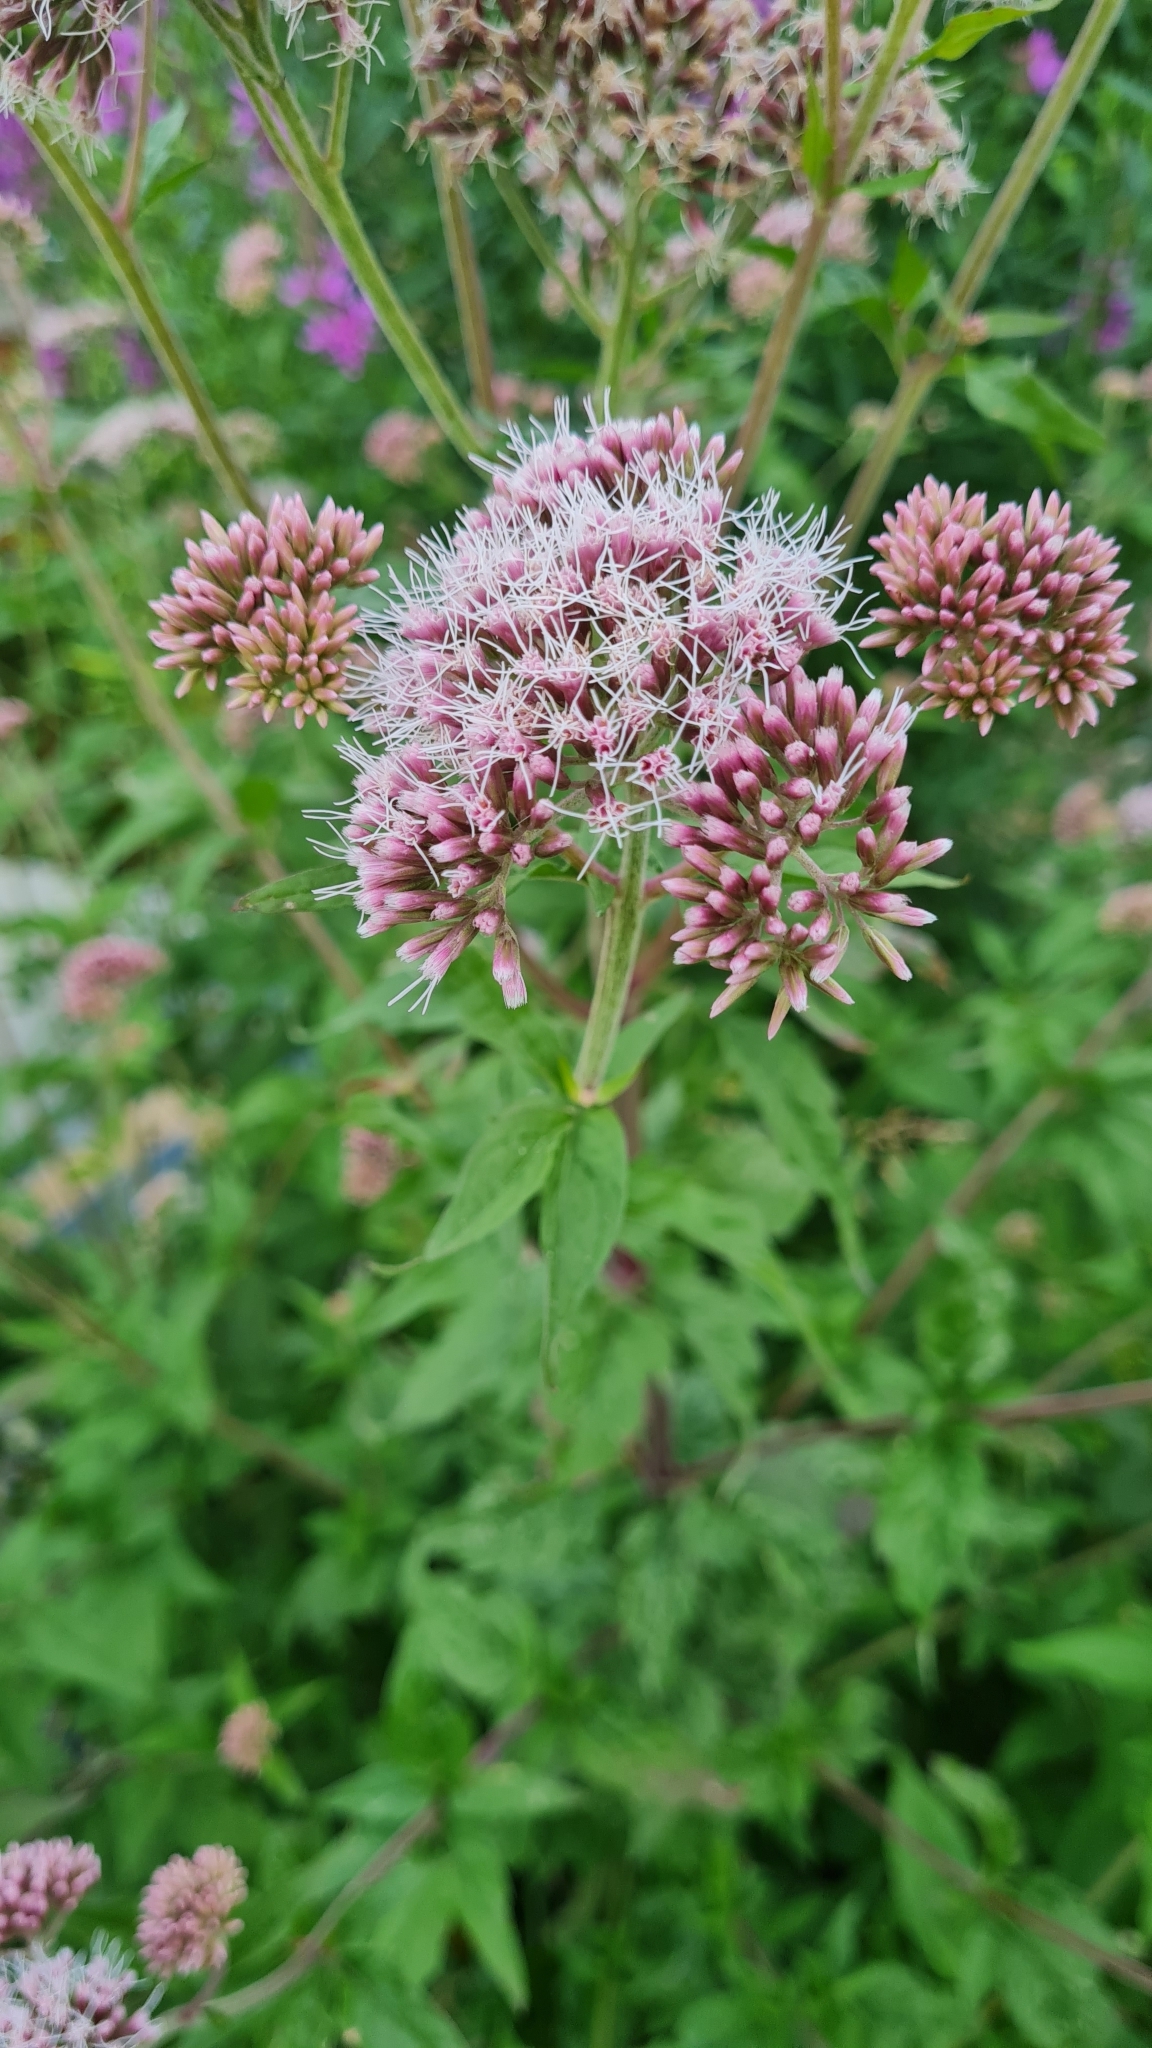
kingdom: Plantae
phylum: Tracheophyta
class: Magnoliopsida
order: Asterales
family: Asteraceae
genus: Eupatorium
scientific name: Eupatorium cannabinum
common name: Hemp-agrimony
